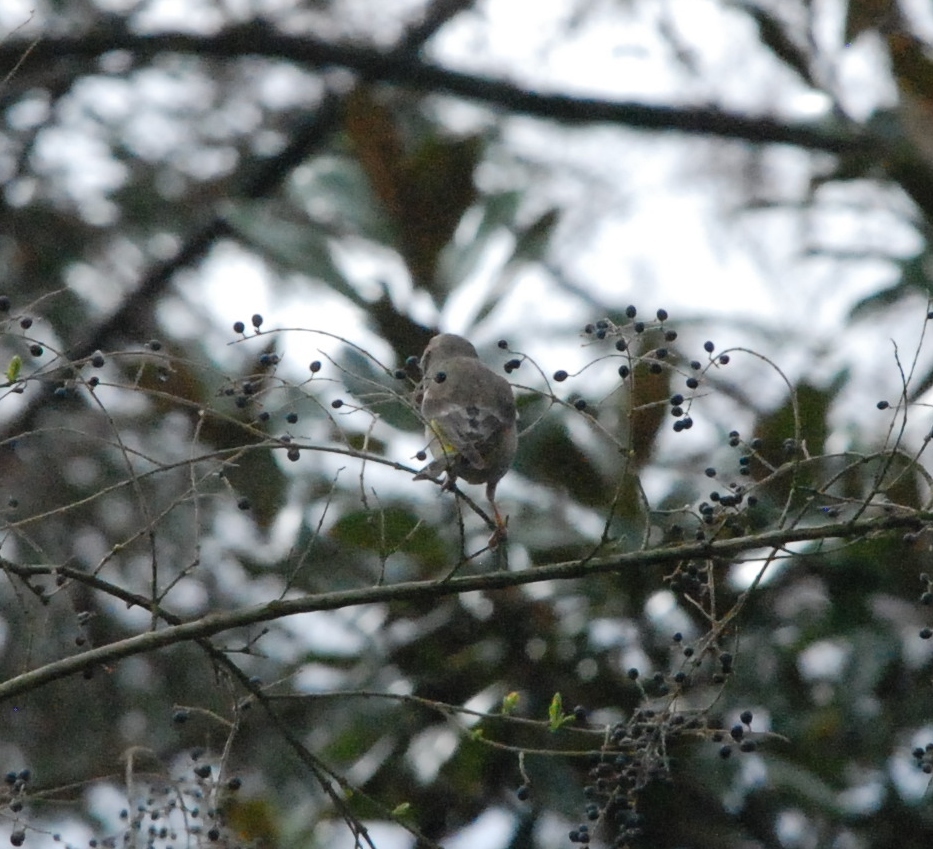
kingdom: Plantae
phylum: Tracheophyta
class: Liliopsida
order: Poales
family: Poaceae
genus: Chloris
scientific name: Chloris chloris
